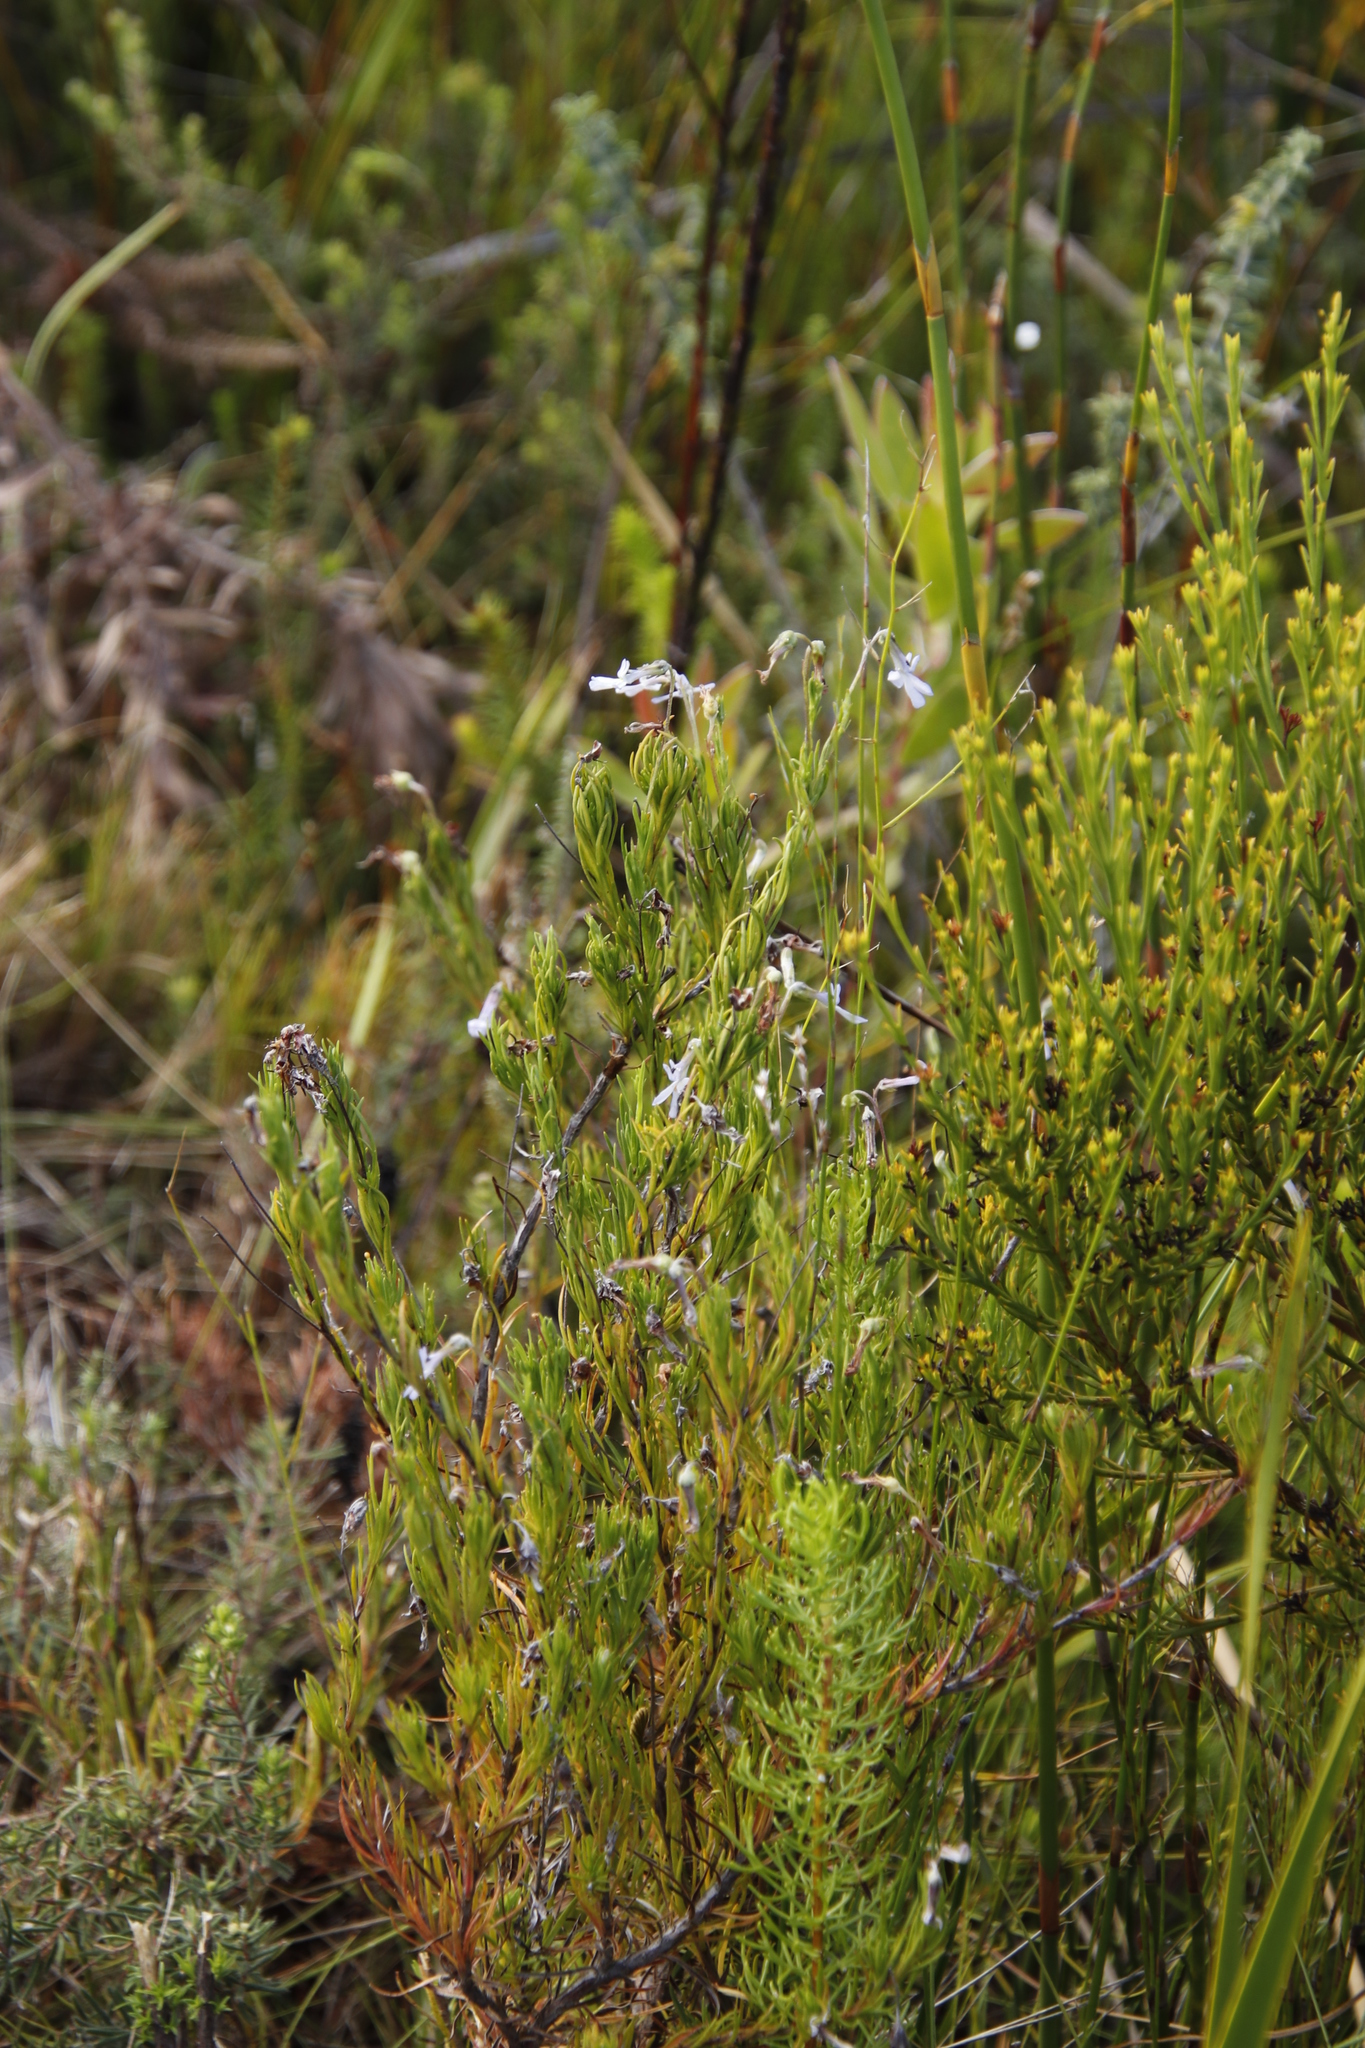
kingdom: Plantae
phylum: Tracheophyta
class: Magnoliopsida
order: Asterales
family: Campanulaceae
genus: Lobelia
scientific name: Lobelia pinifolia
